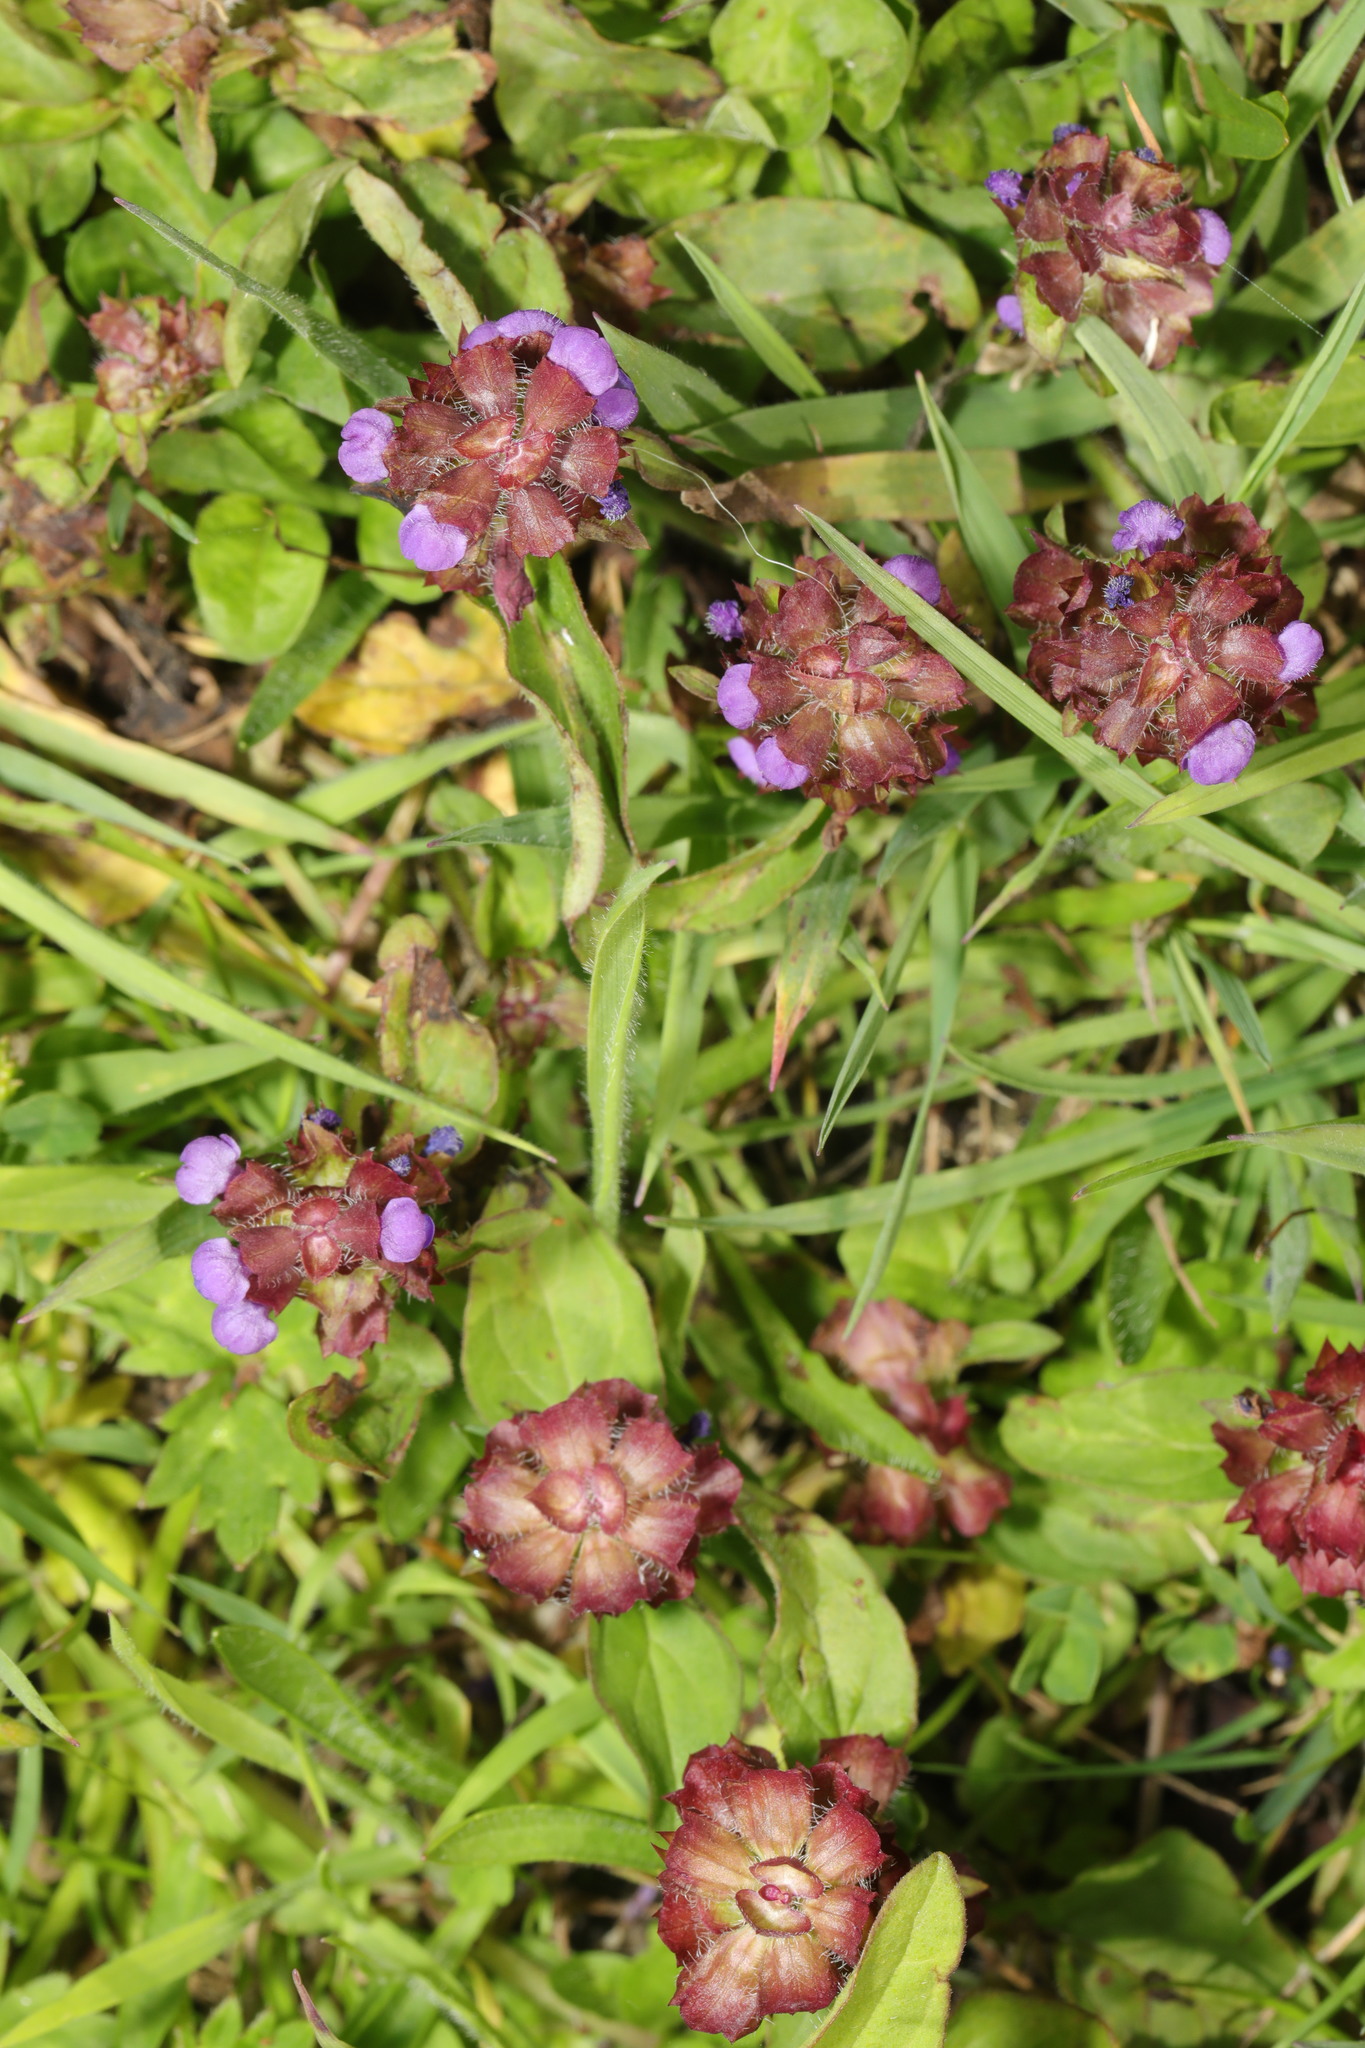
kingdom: Plantae
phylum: Tracheophyta
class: Magnoliopsida
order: Lamiales
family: Lamiaceae
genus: Prunella
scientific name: Prunella vulgaris
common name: Heal-all
